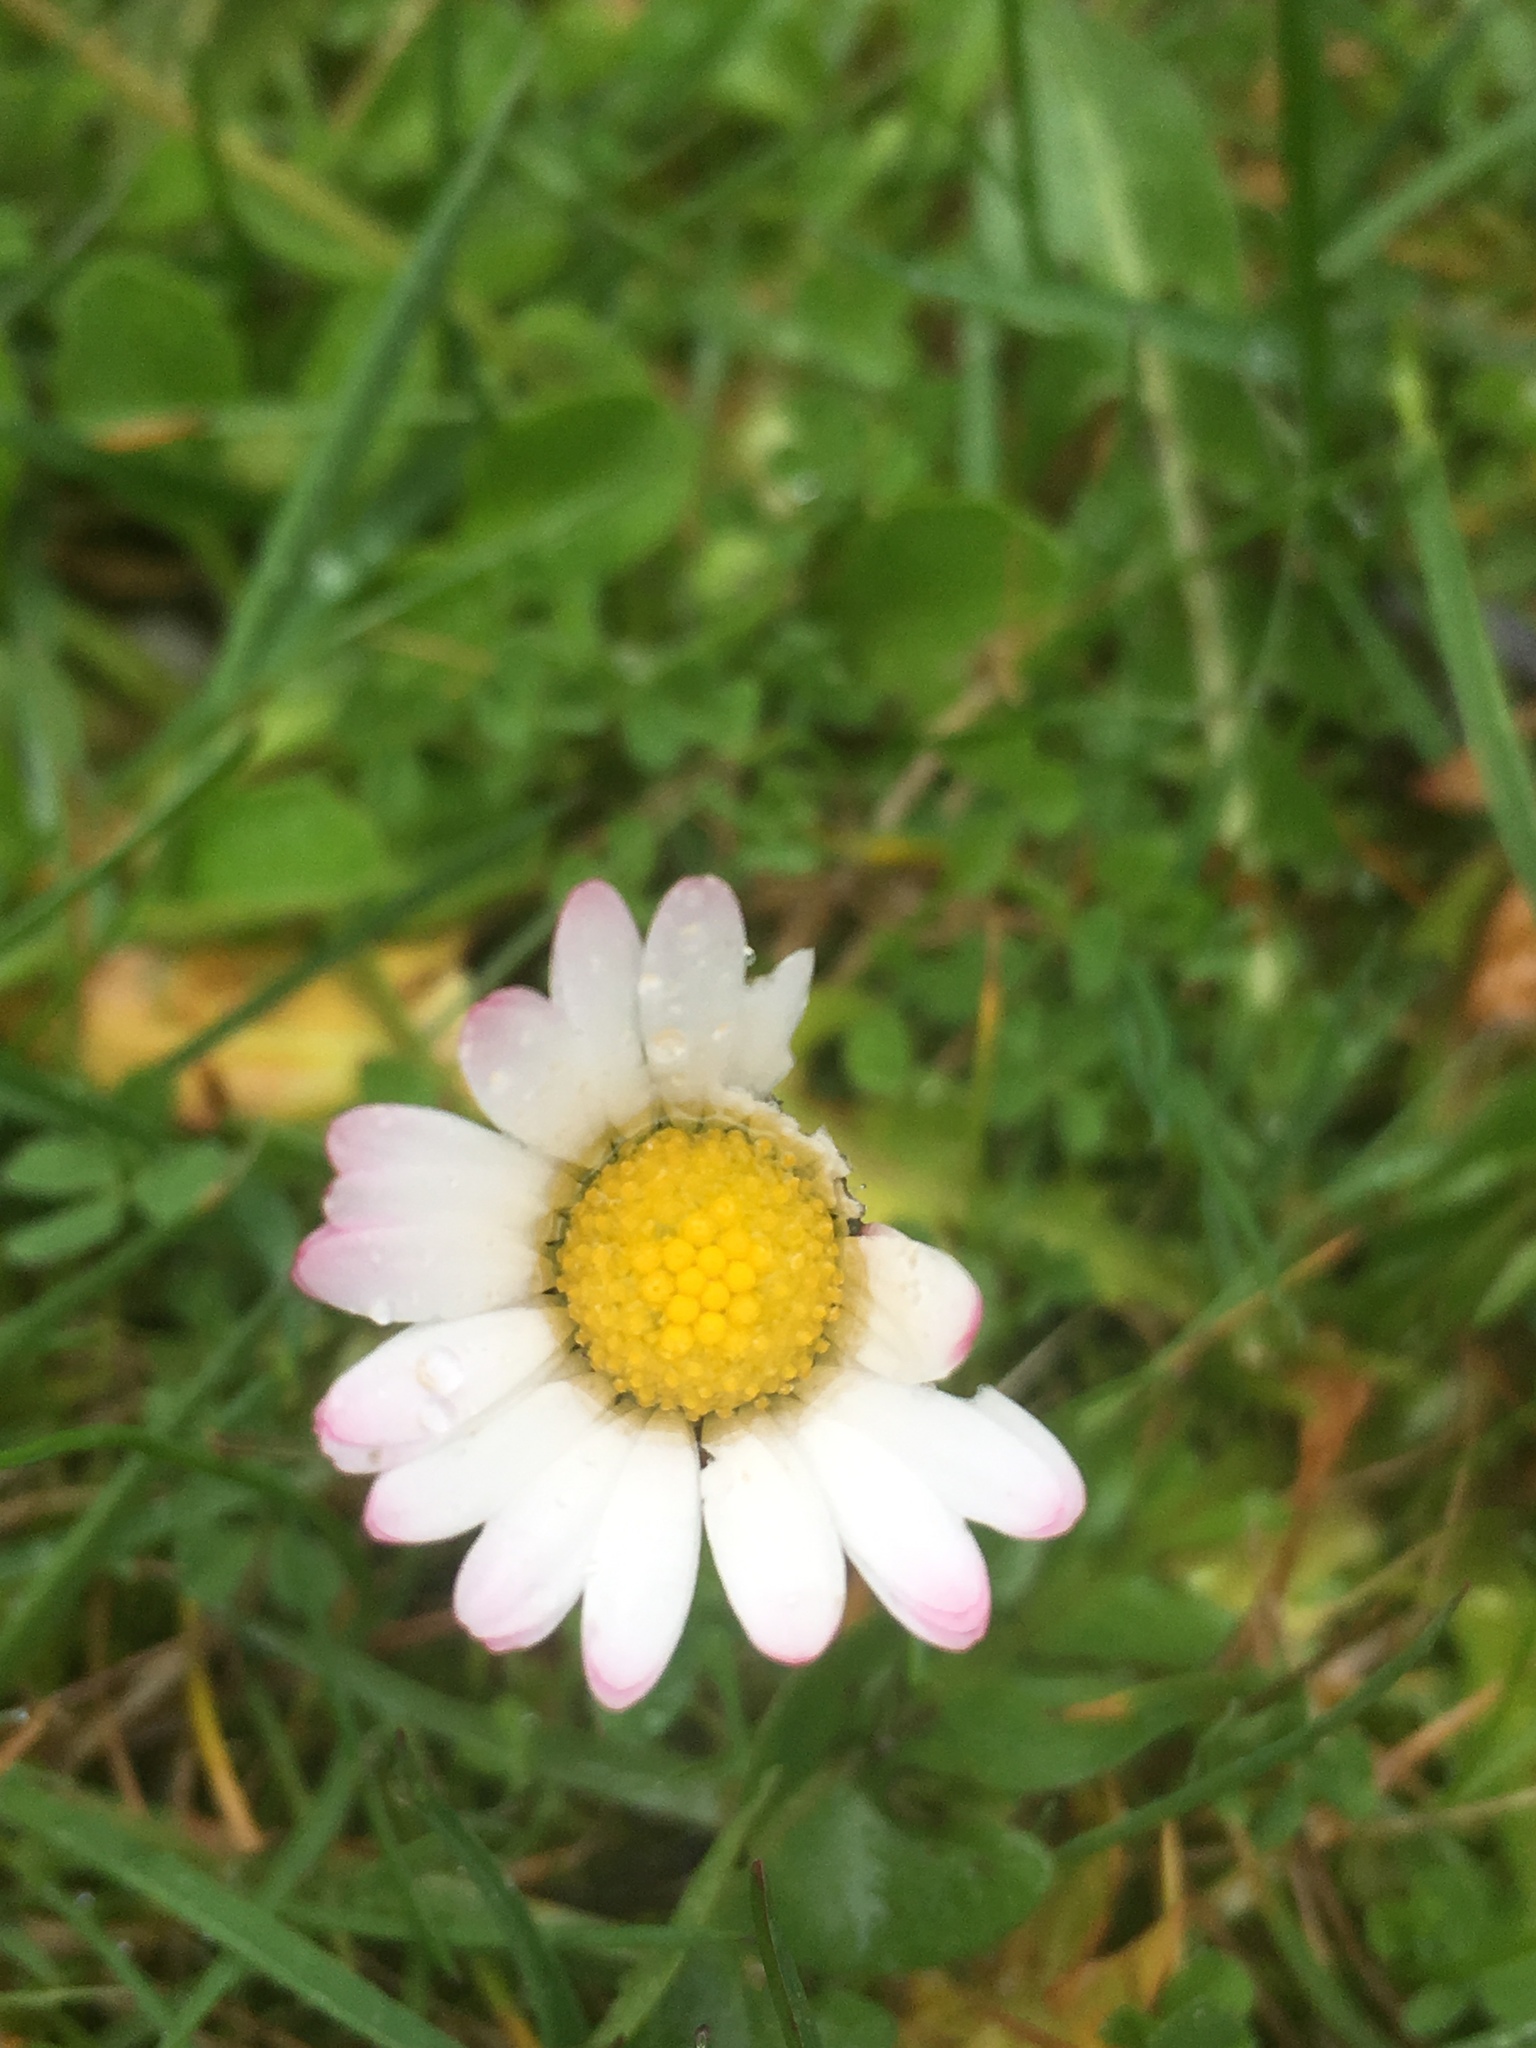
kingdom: Plantae
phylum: Tracheophyta
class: Magnoliopsida
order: Asterales
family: Asteraceae
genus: Bellis
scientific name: Bellis perennis
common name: Lawndaisy
